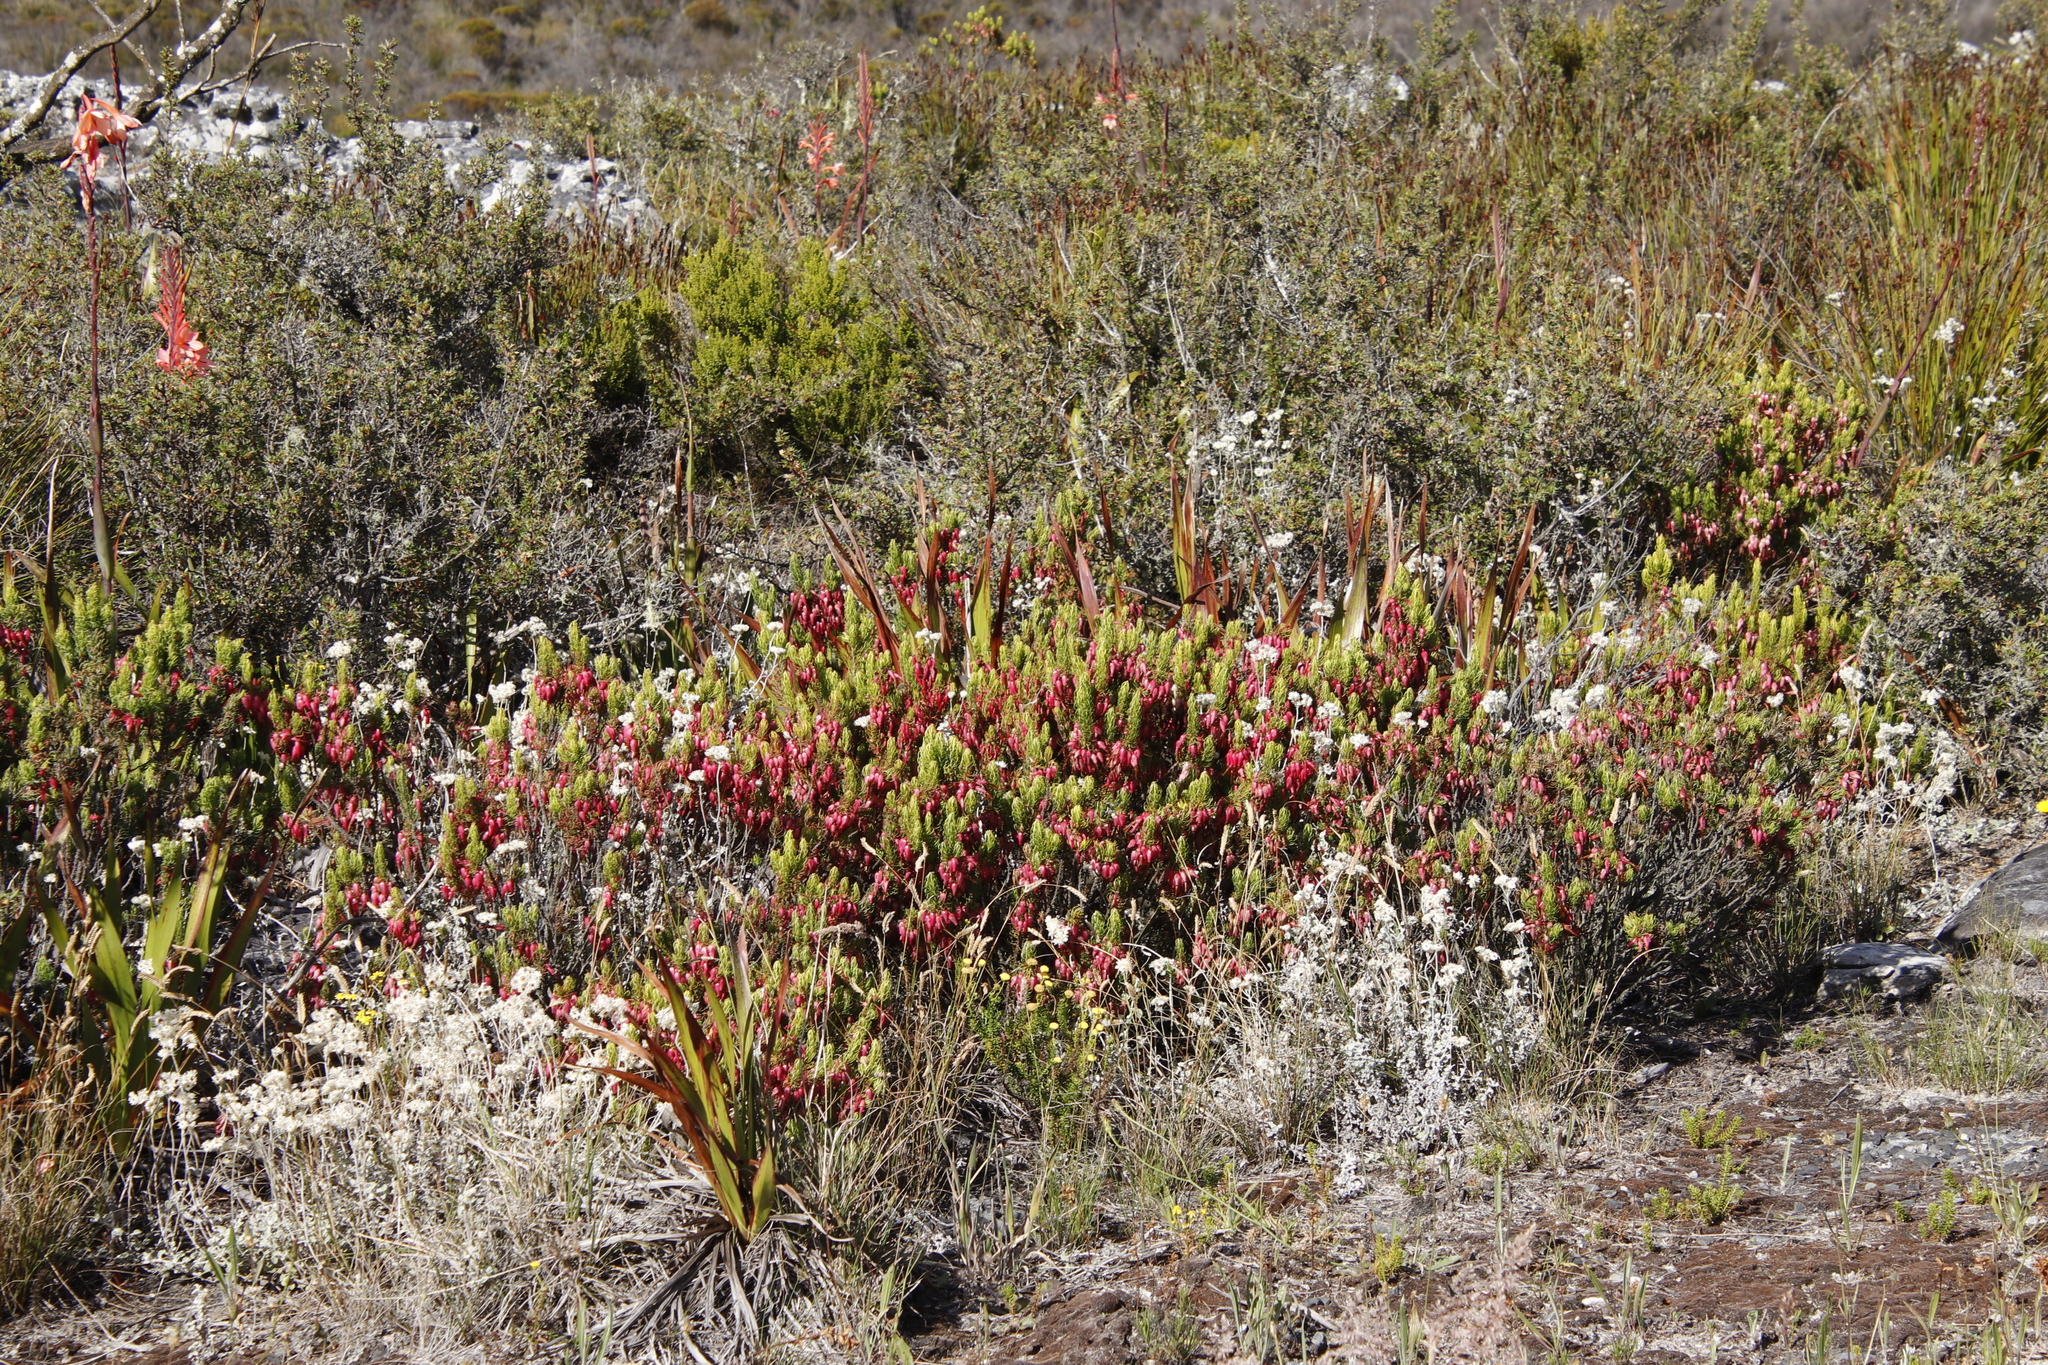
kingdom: Plantae
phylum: Tracheophyta
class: Magnoliopsida
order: Ericales
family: Ericaceae
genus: Erica
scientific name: Erica plukenetii
